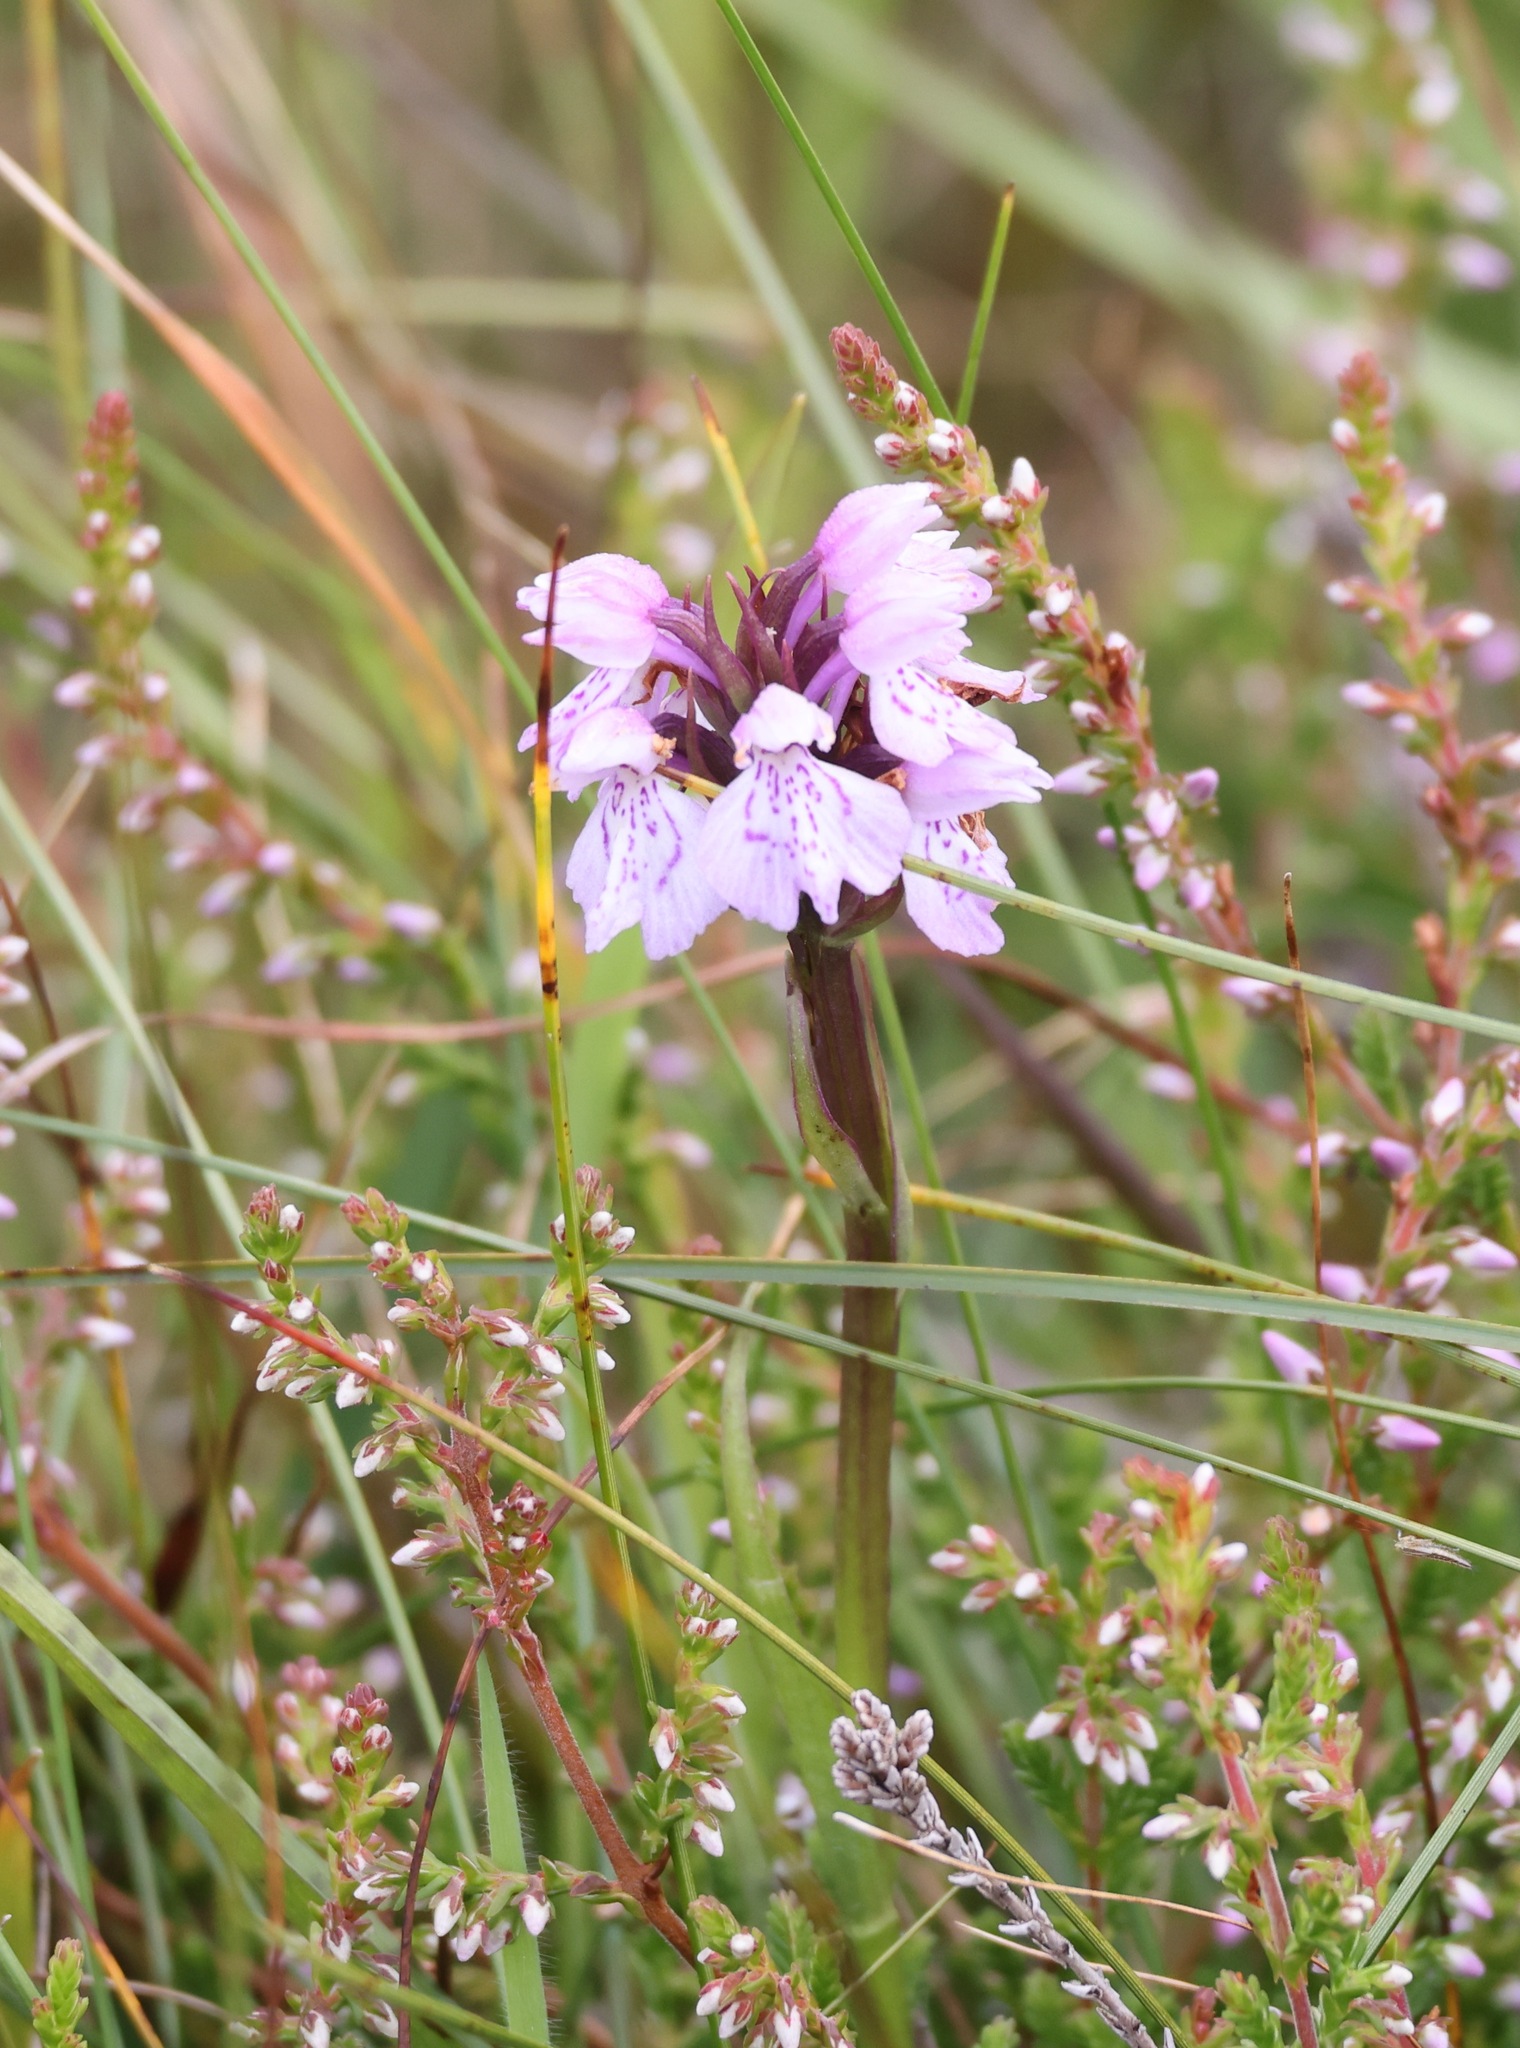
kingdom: Plantae
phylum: Tracheophyta
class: Liliopsida
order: Asparagales
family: Orchidaceae
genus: Dactylorhiza
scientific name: Dactylorhiza maculata
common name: Heath spotted-orchid
